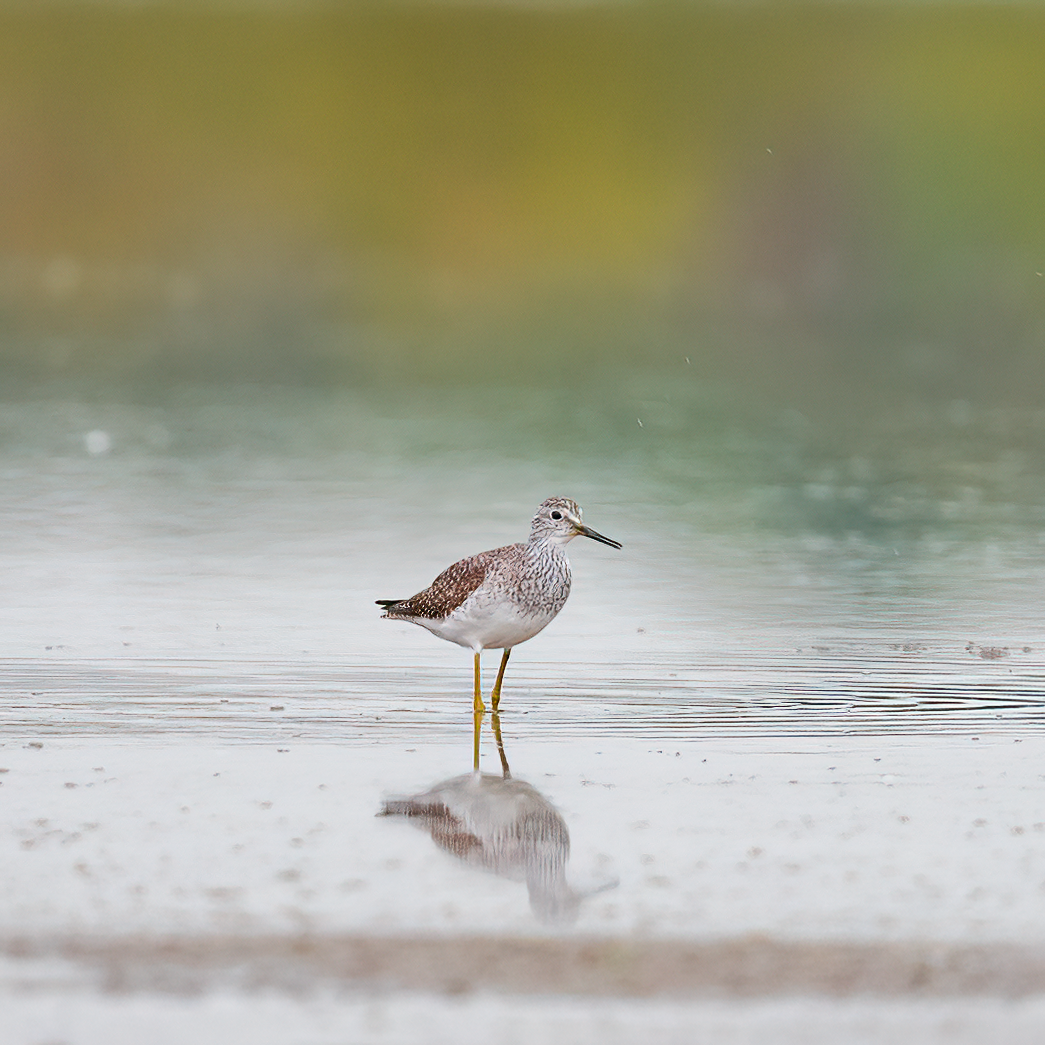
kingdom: Animalia
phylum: Chordata
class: Aves
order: Charadriiformes
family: Scolopacidae
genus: Tringa
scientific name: Tringa flavipes
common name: Lesser yellowlegs
